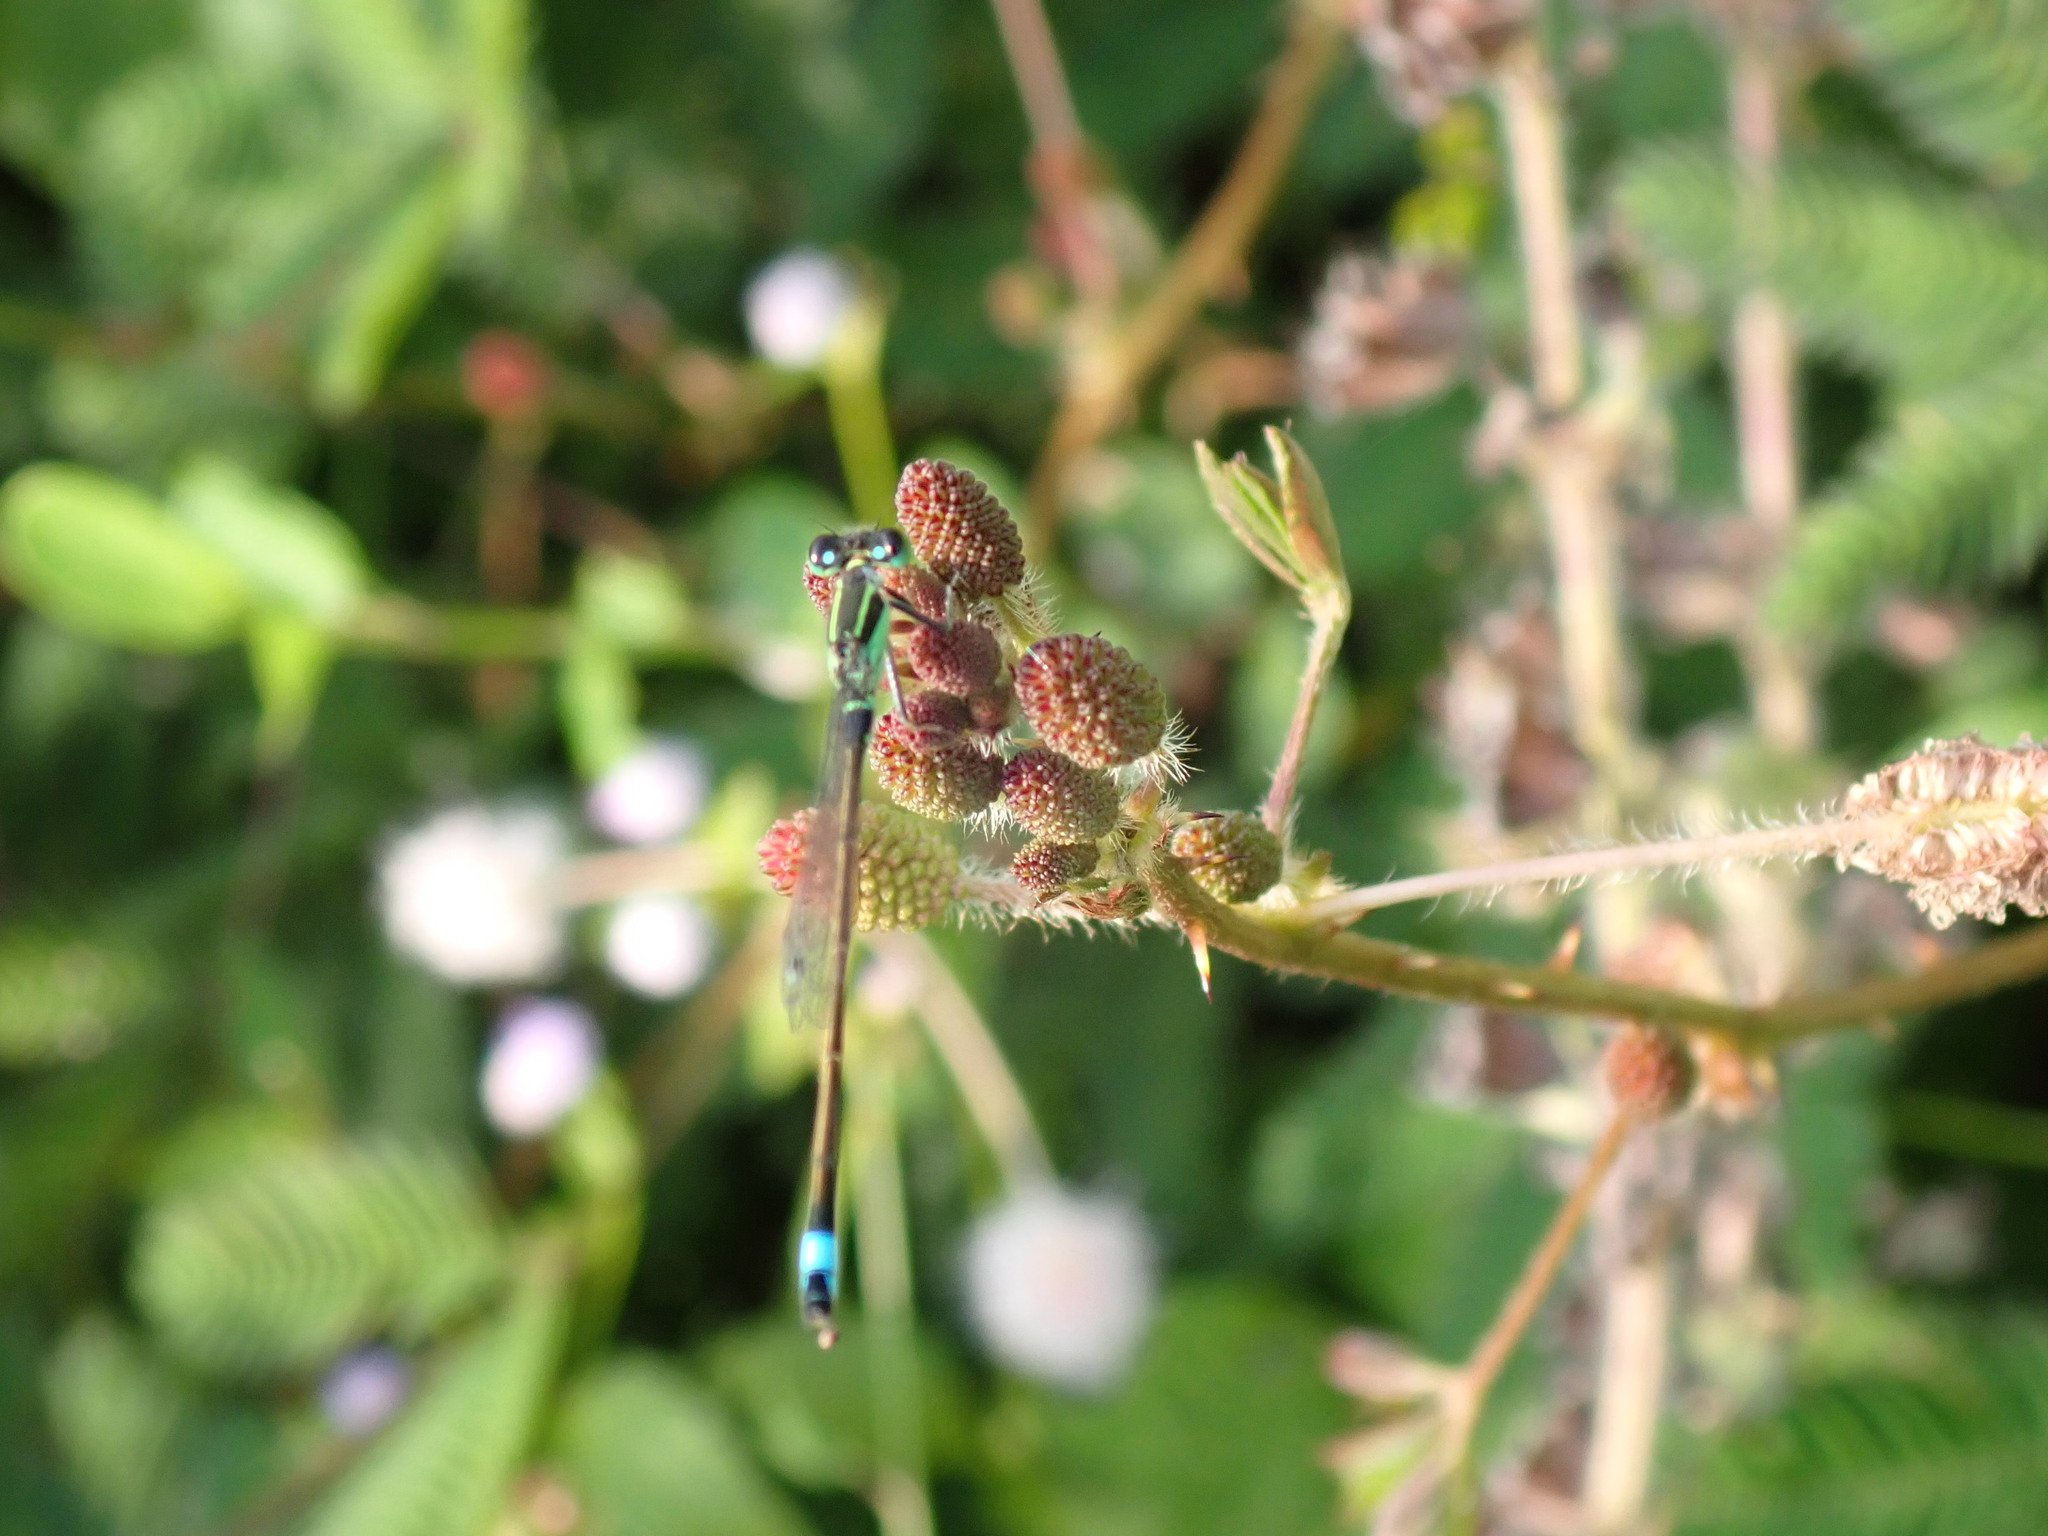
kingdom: Animalia
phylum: Arthropoda
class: Insecta
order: Odonata
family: Coenagrionidae
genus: Ischnura
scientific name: Ischnura senegalensis
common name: Tropical bluetail
